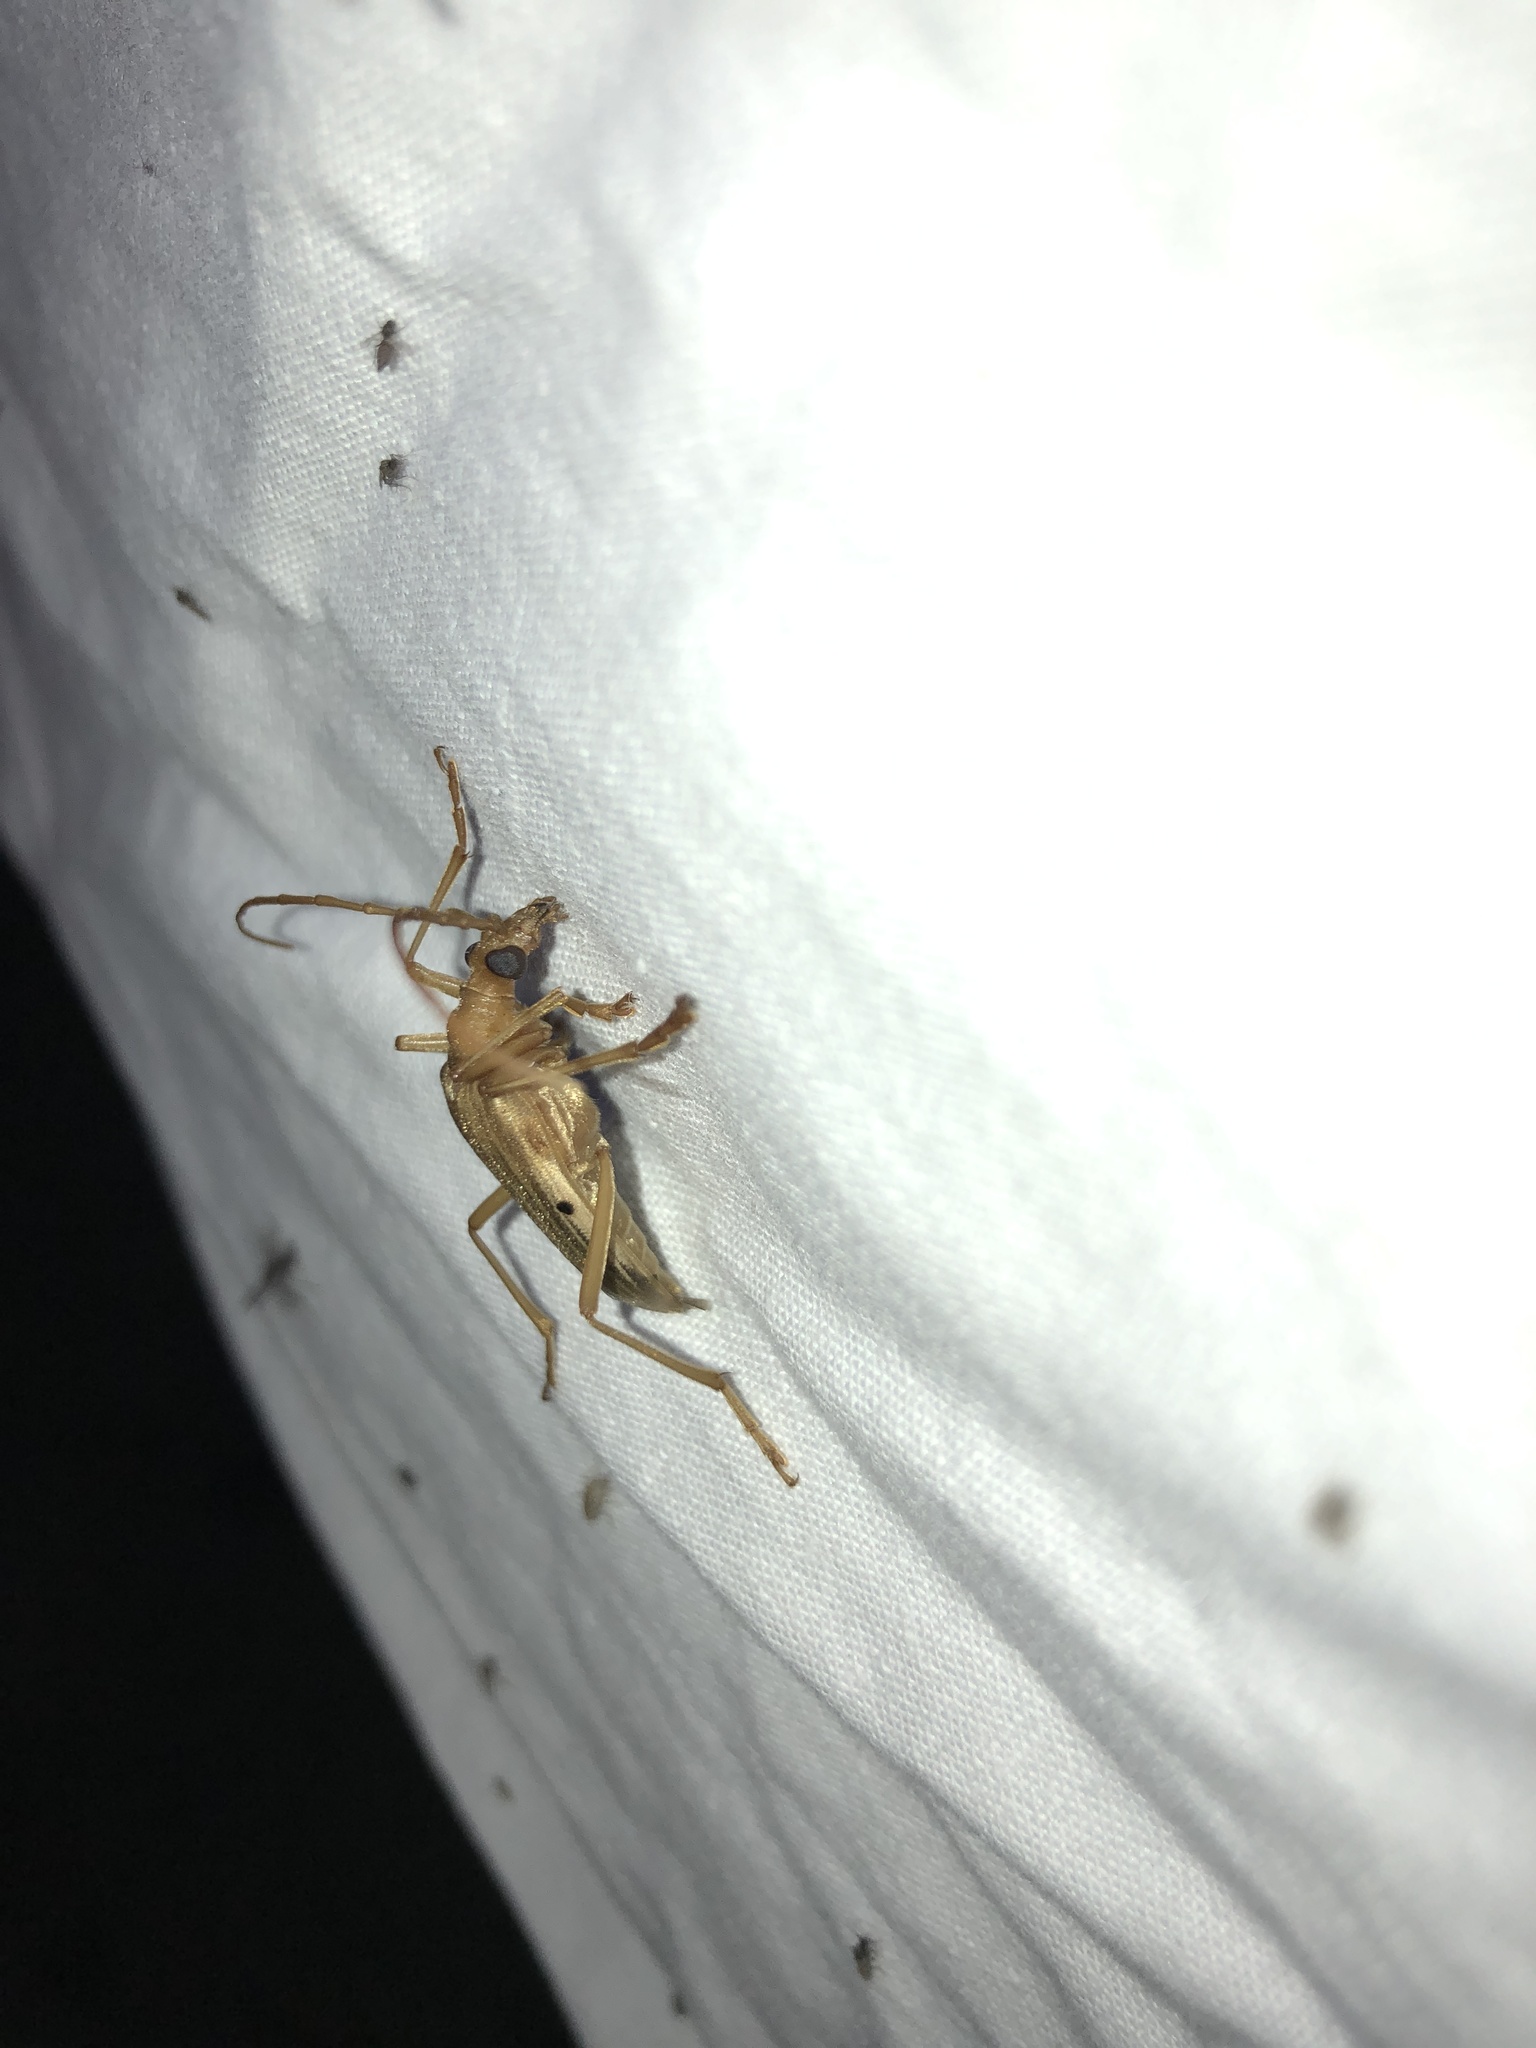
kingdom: Animalia
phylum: Arthropoda
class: Insecta
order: Coleoptera
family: Cerambycidae
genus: Centrodera
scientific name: Centrodera spurca
